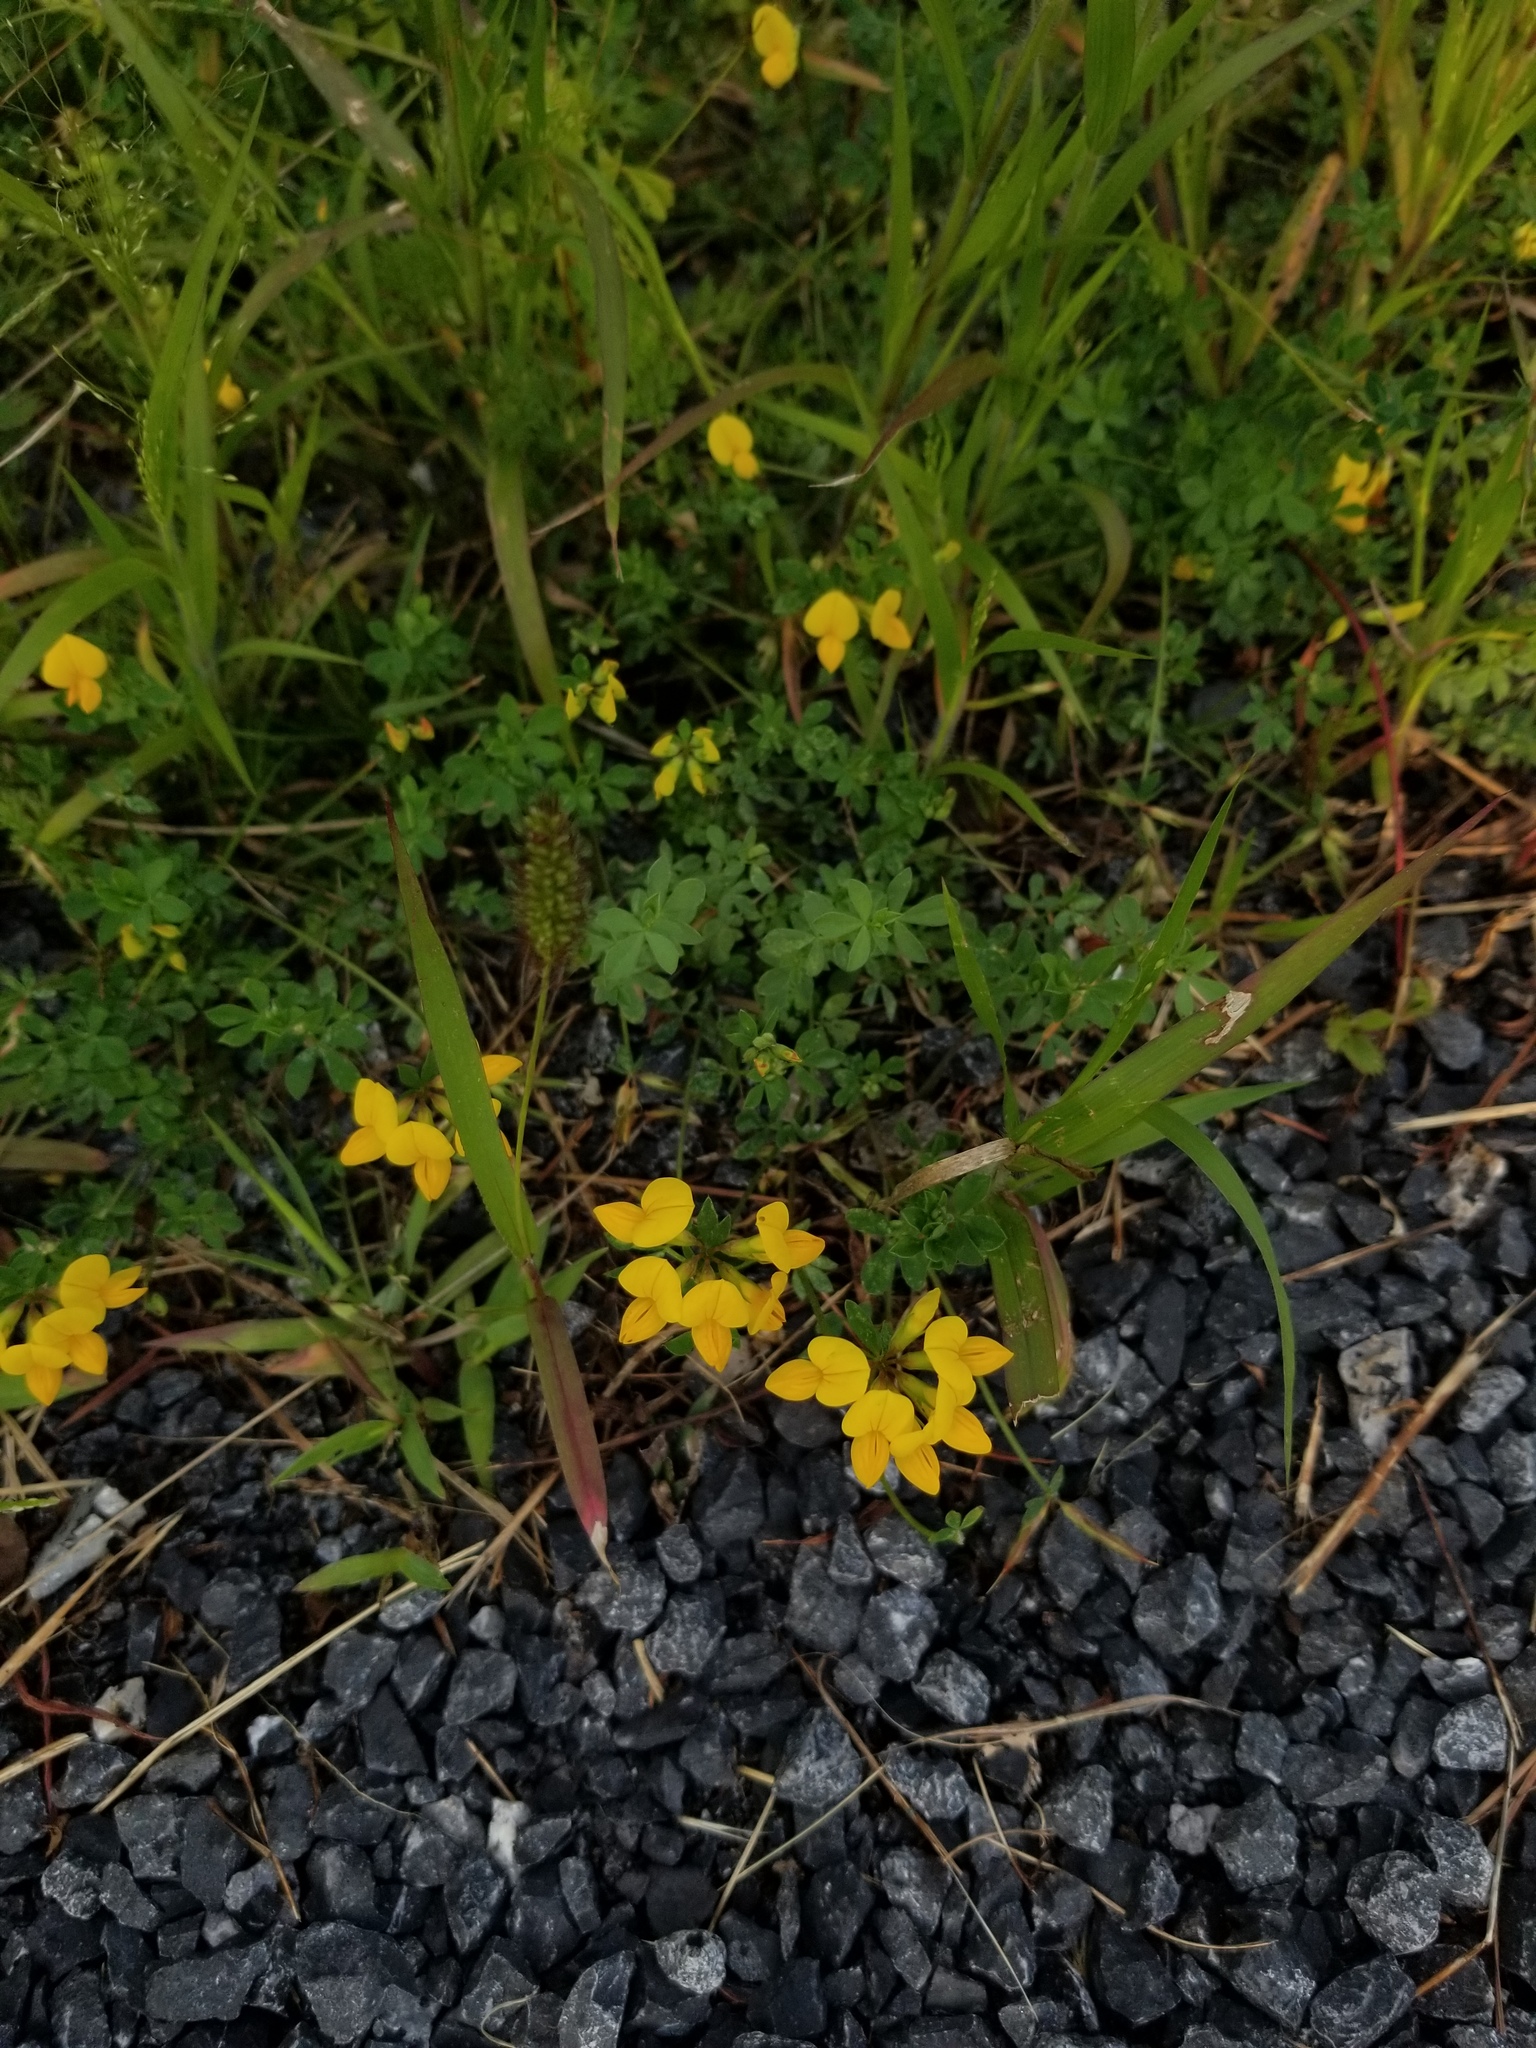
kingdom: Plantae
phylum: Tracheophyta
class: Magnoliopsida
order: Fabales
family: Fabaceae
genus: Lotus
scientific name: Lotus corniculatus
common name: Common bird's-foot-trefoil
